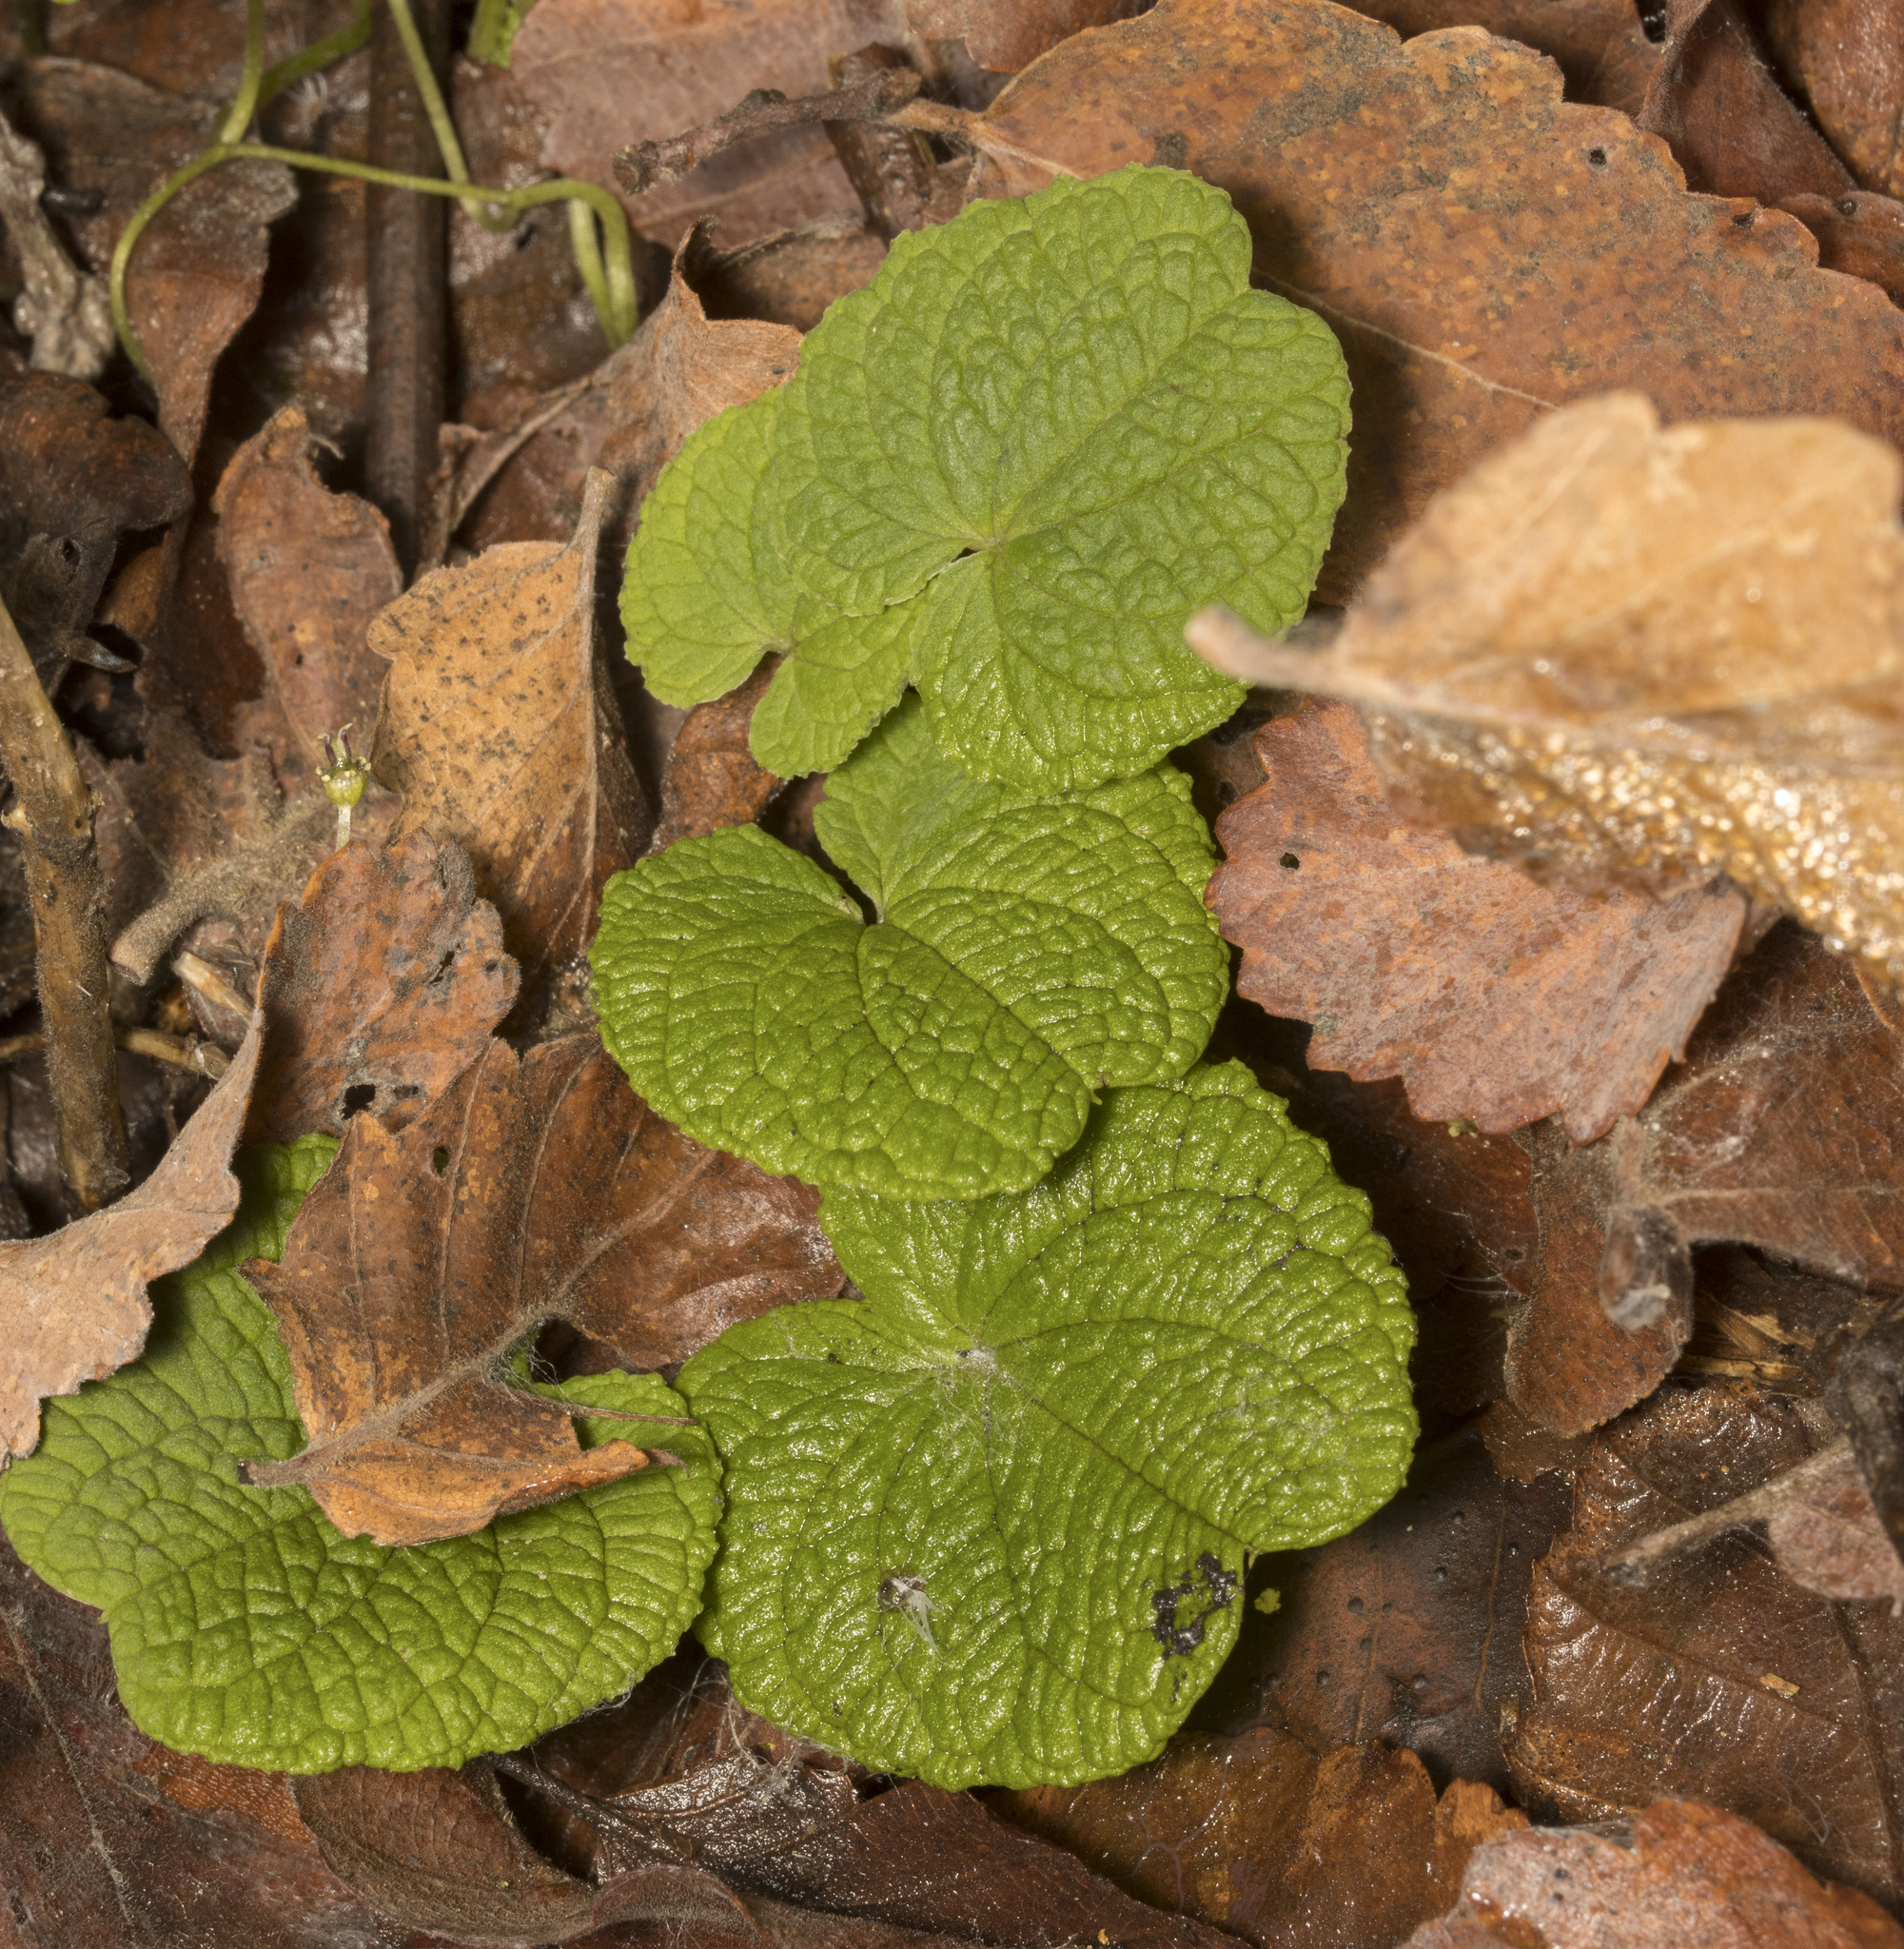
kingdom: Plantae
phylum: Tracheophyta
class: Liliopsida
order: Dioscoreales
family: Dioscoreaceae
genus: Dioscorea
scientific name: Dioscorea humilis
